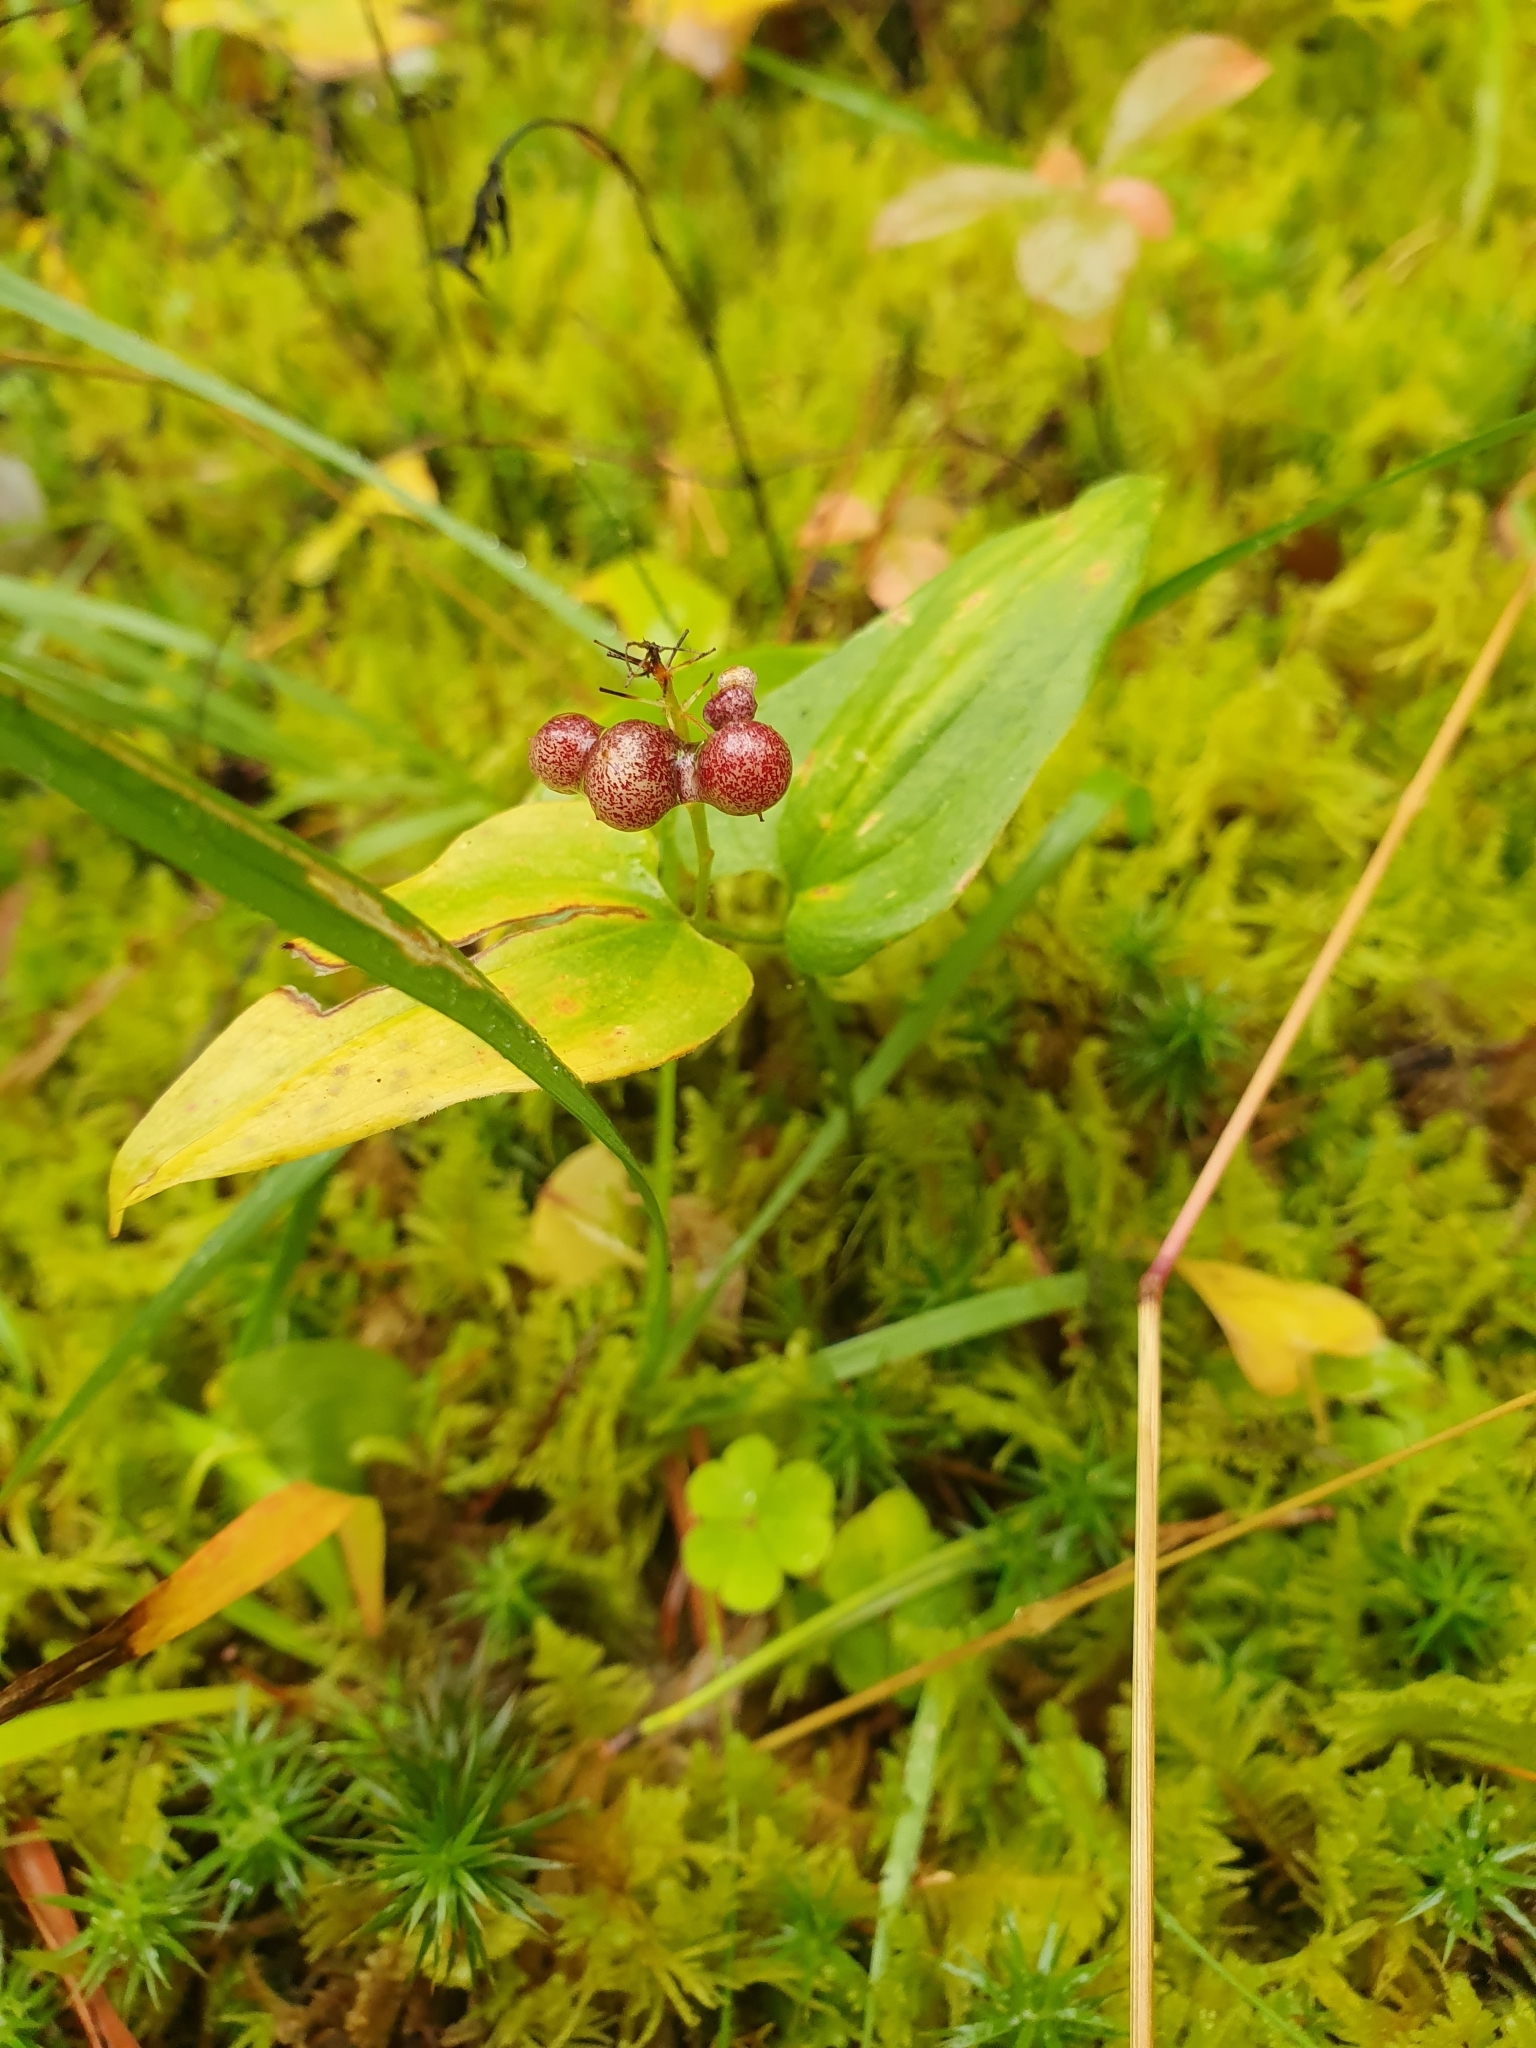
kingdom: Plantae
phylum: Tracheophyta
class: Liliopsida
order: Asparagales
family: Asparagaceae
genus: Maianthemum
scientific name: Maianthemum bifolium
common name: May lily
